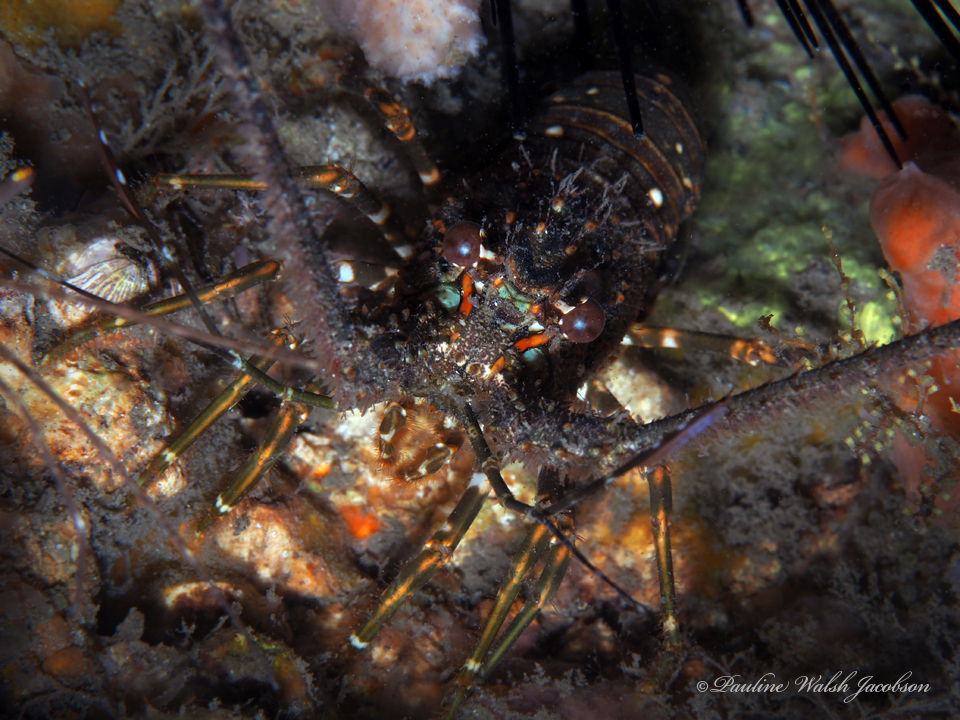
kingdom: Animalia
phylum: Arthropoda
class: Malacostraca
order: Decapoda
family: Palinuridae
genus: Panulirus
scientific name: Panulirus argus
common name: Caribbean spiny lobster
